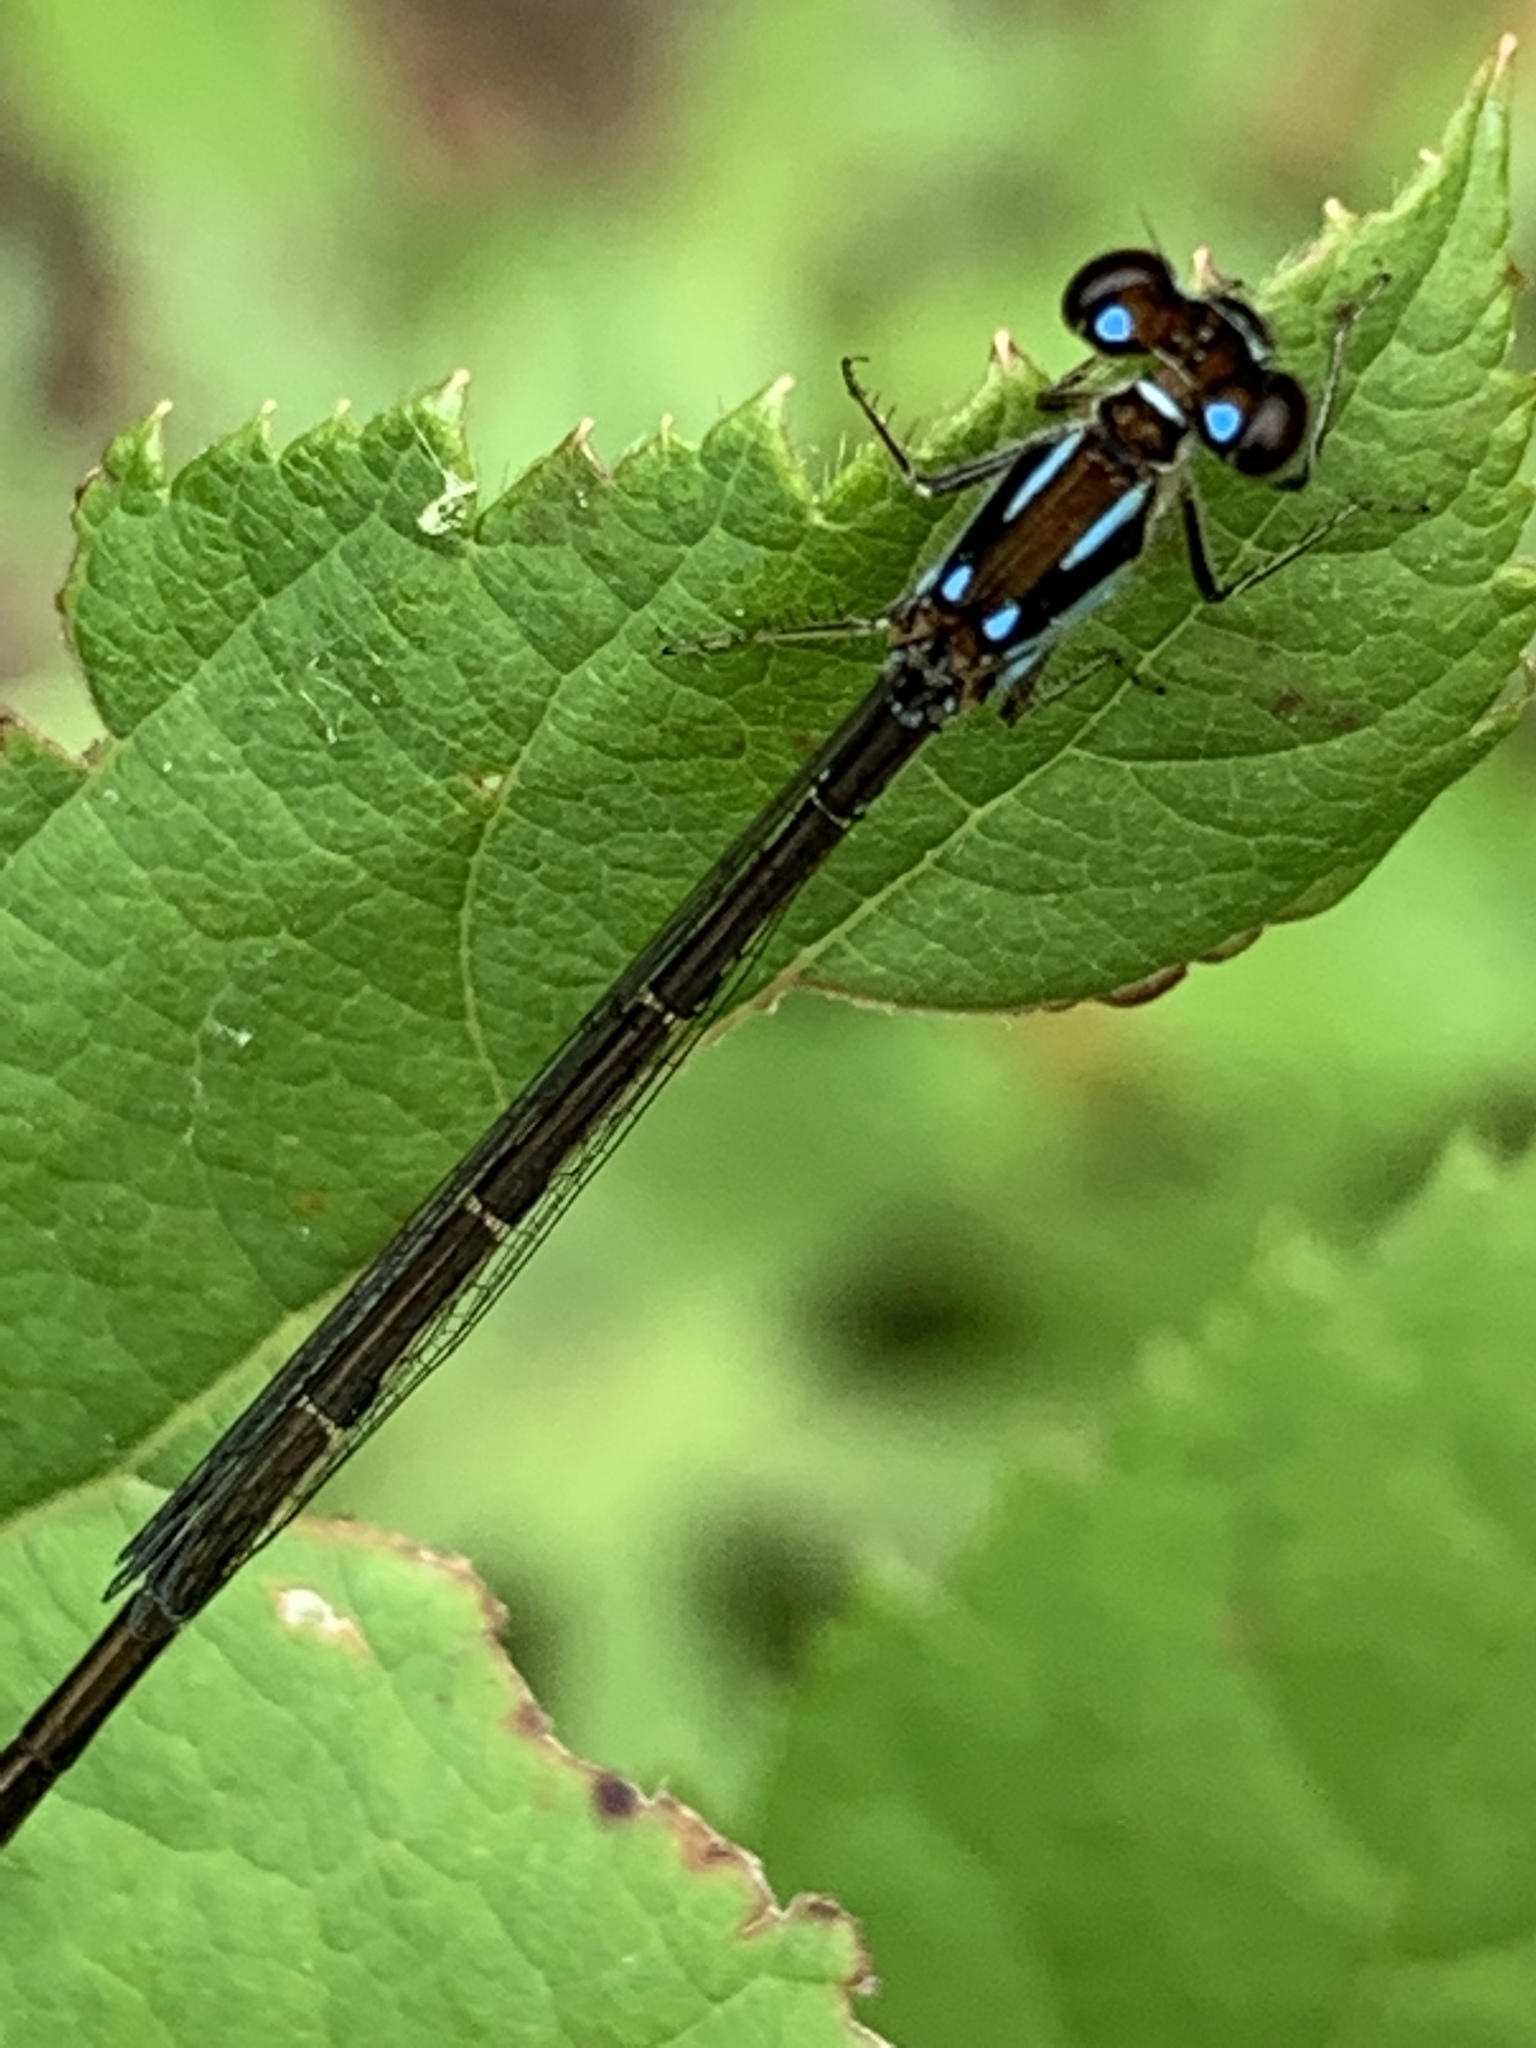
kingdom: Animalia
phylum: Arthropoda
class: Insecta
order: Odonata
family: Coenagrionidae
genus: Ischnura
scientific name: Ischnura posita
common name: Fragile forktail
